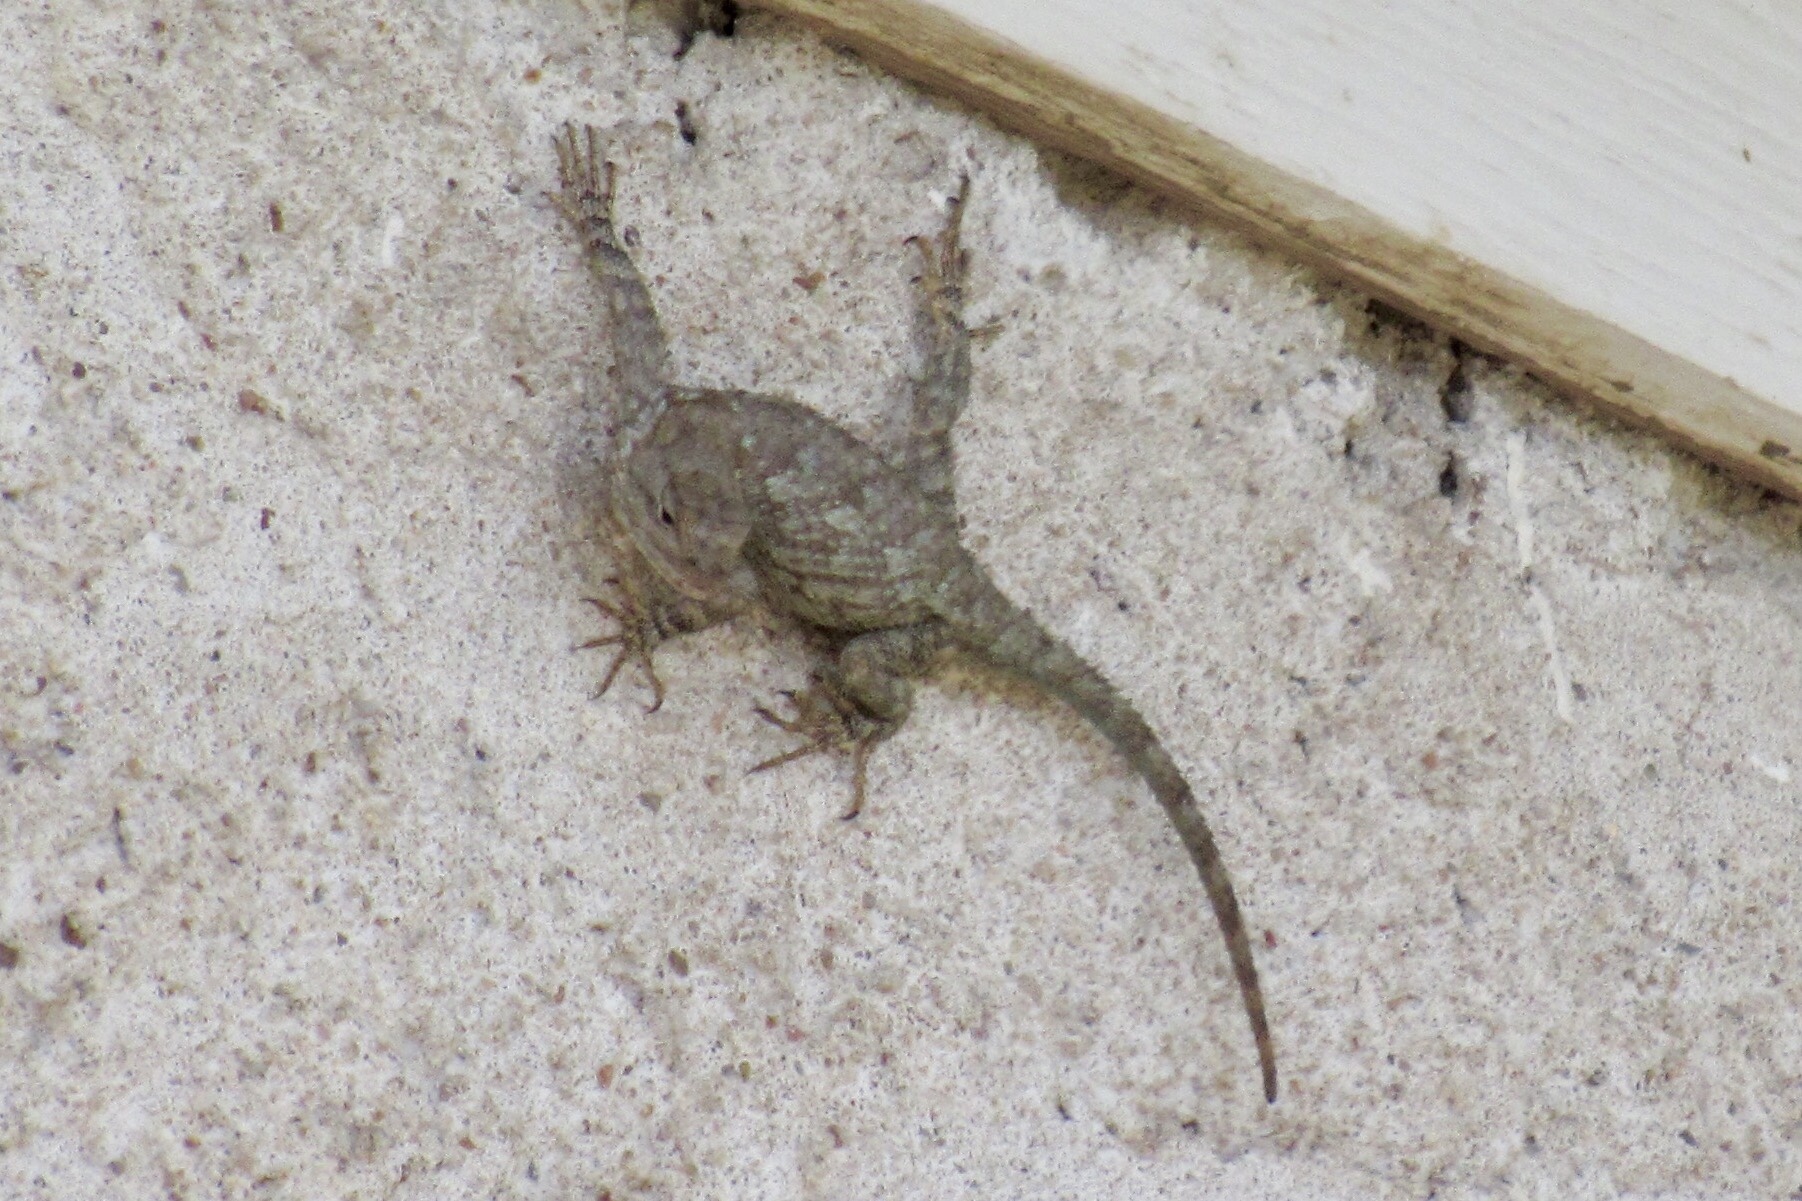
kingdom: Animalia
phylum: Chordata
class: Squamata
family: Phrynosomatidae
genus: Sceloporus
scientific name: Sceloporus clarkii
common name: Clark's spiny lizard
